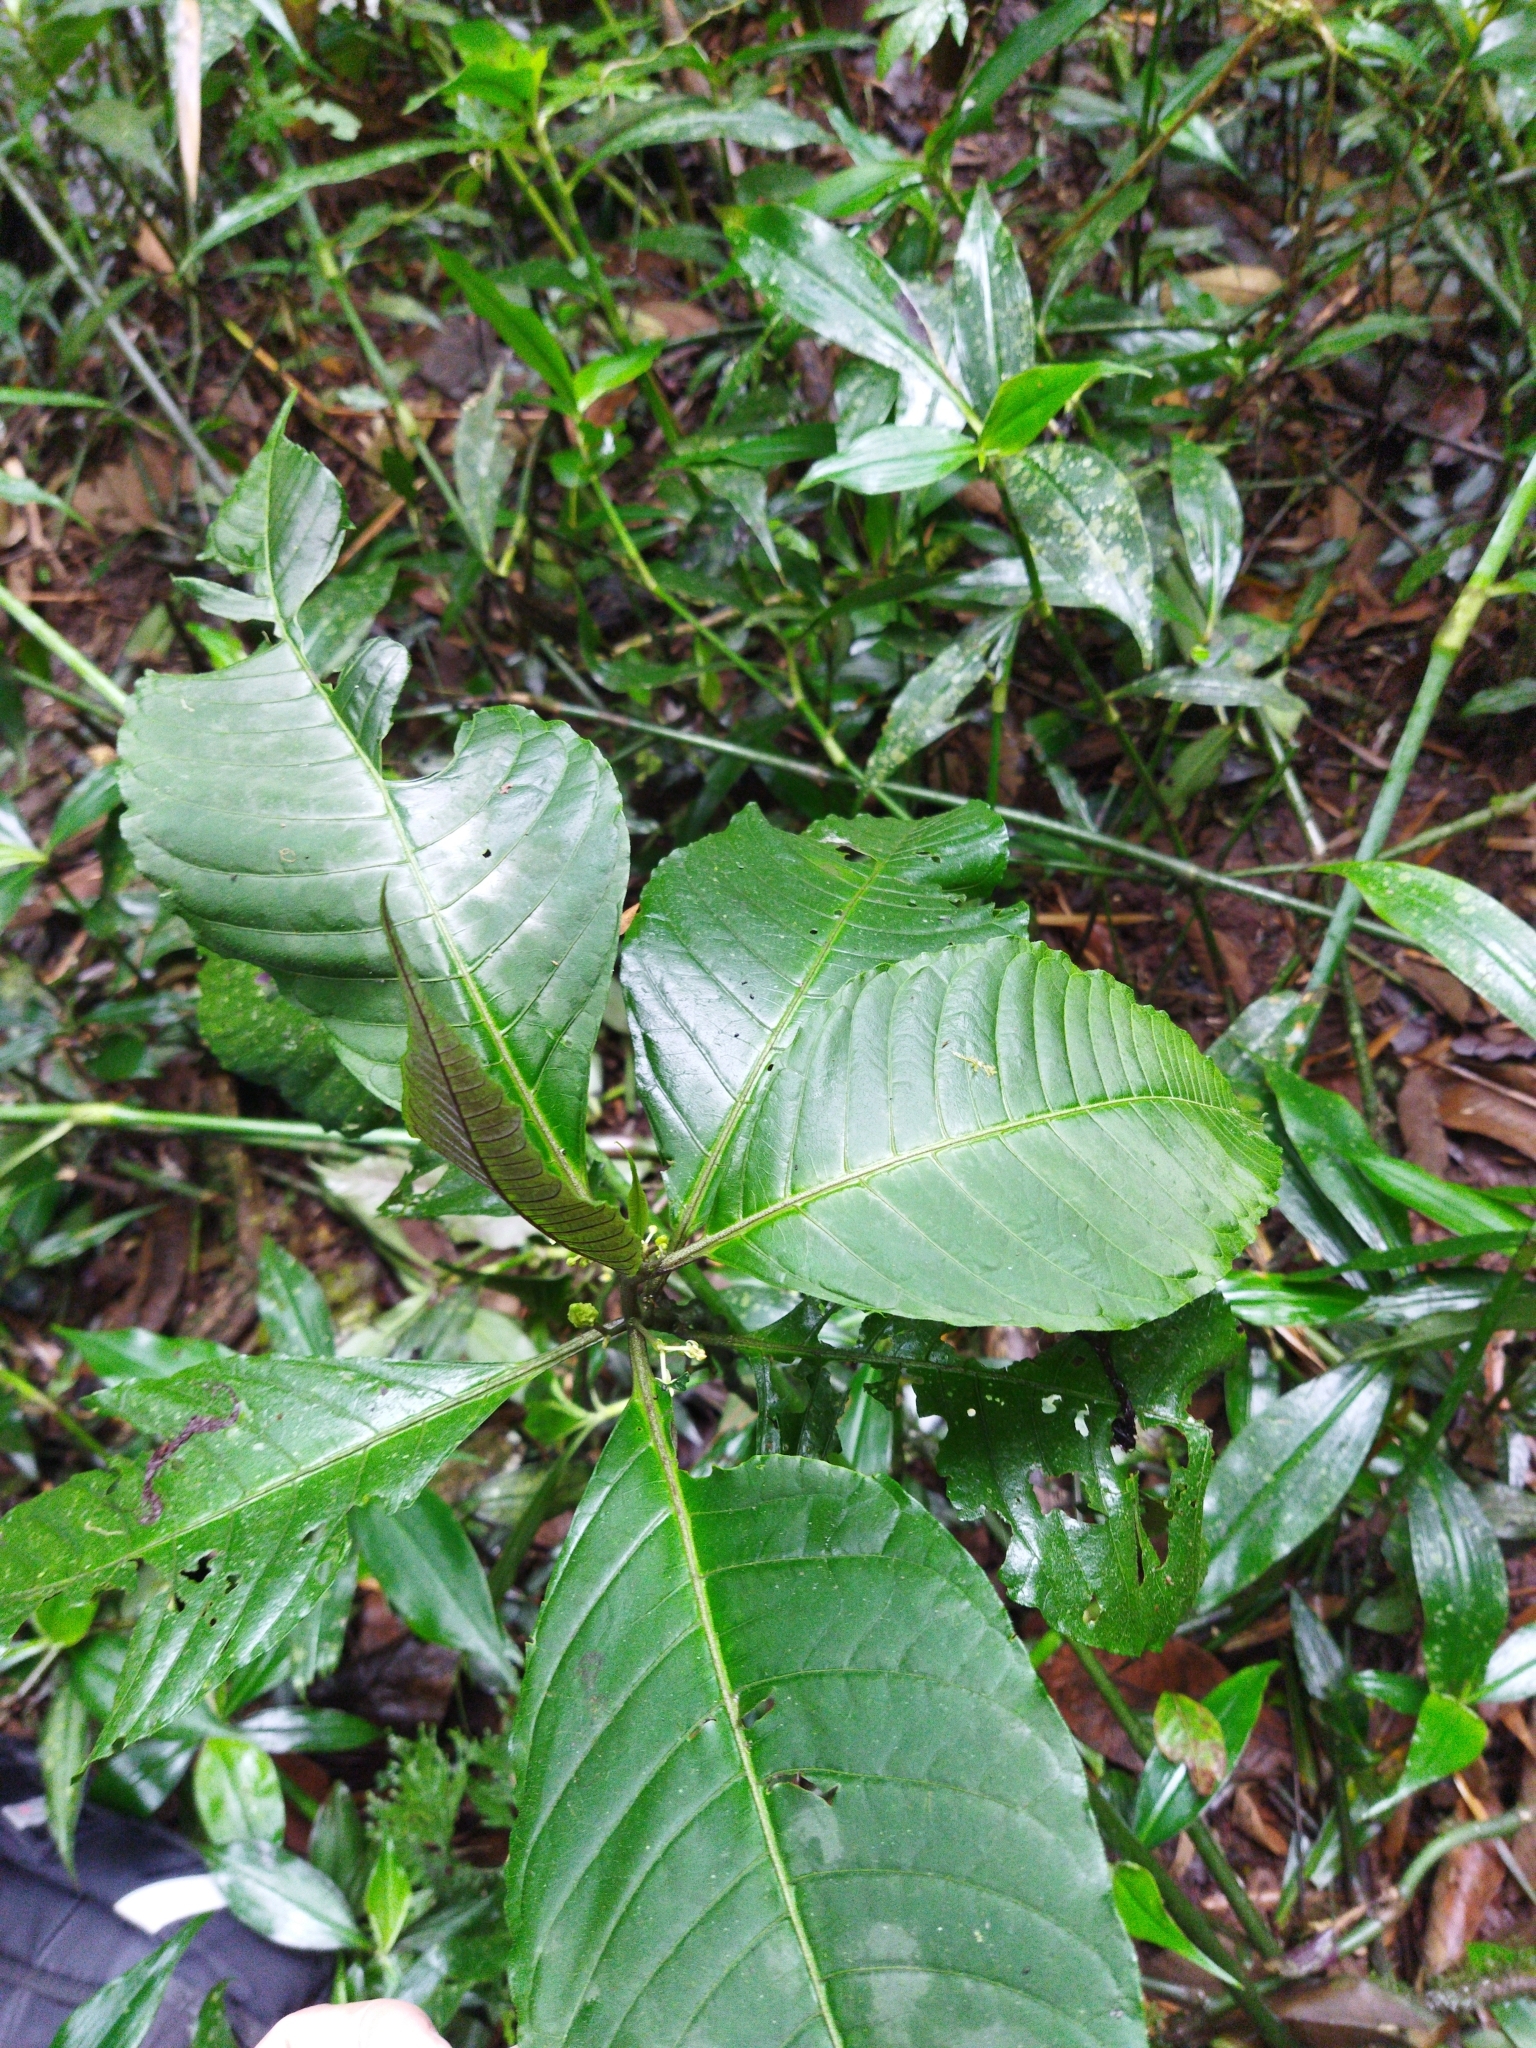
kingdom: Plantae
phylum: Tracheophyta
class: Magnoliopsida
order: Solanales
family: Solanaceae
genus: Solanum
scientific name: Solanum anceps
